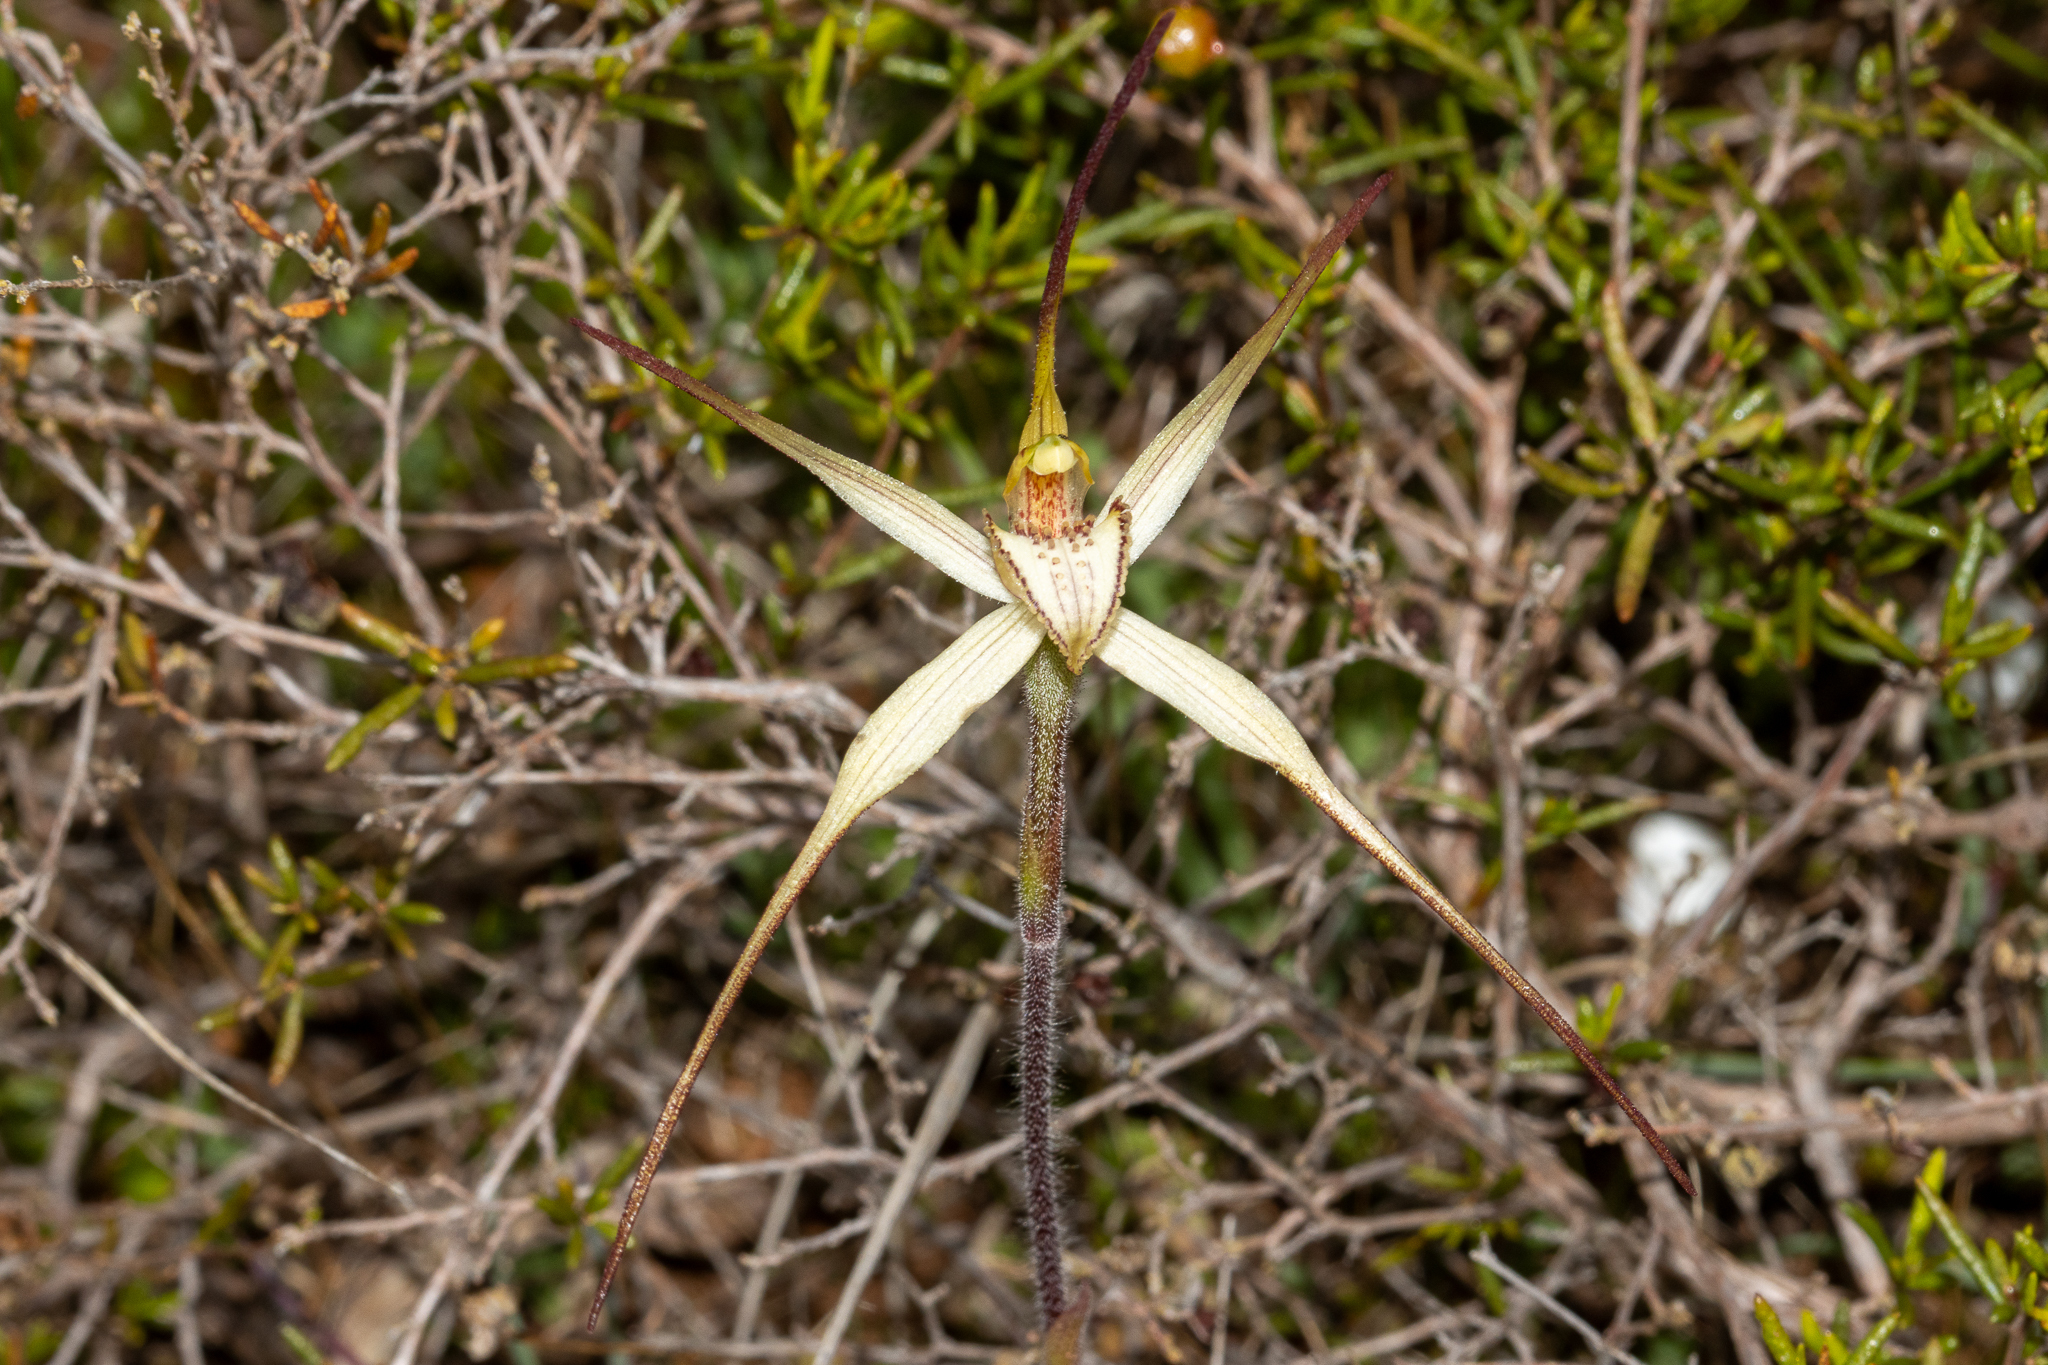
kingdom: Plantae
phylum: Tracheophyta
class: Liliopsida
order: Asparagales
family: Orchidaceae
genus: Caladenia
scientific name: Caladenia brumalis
